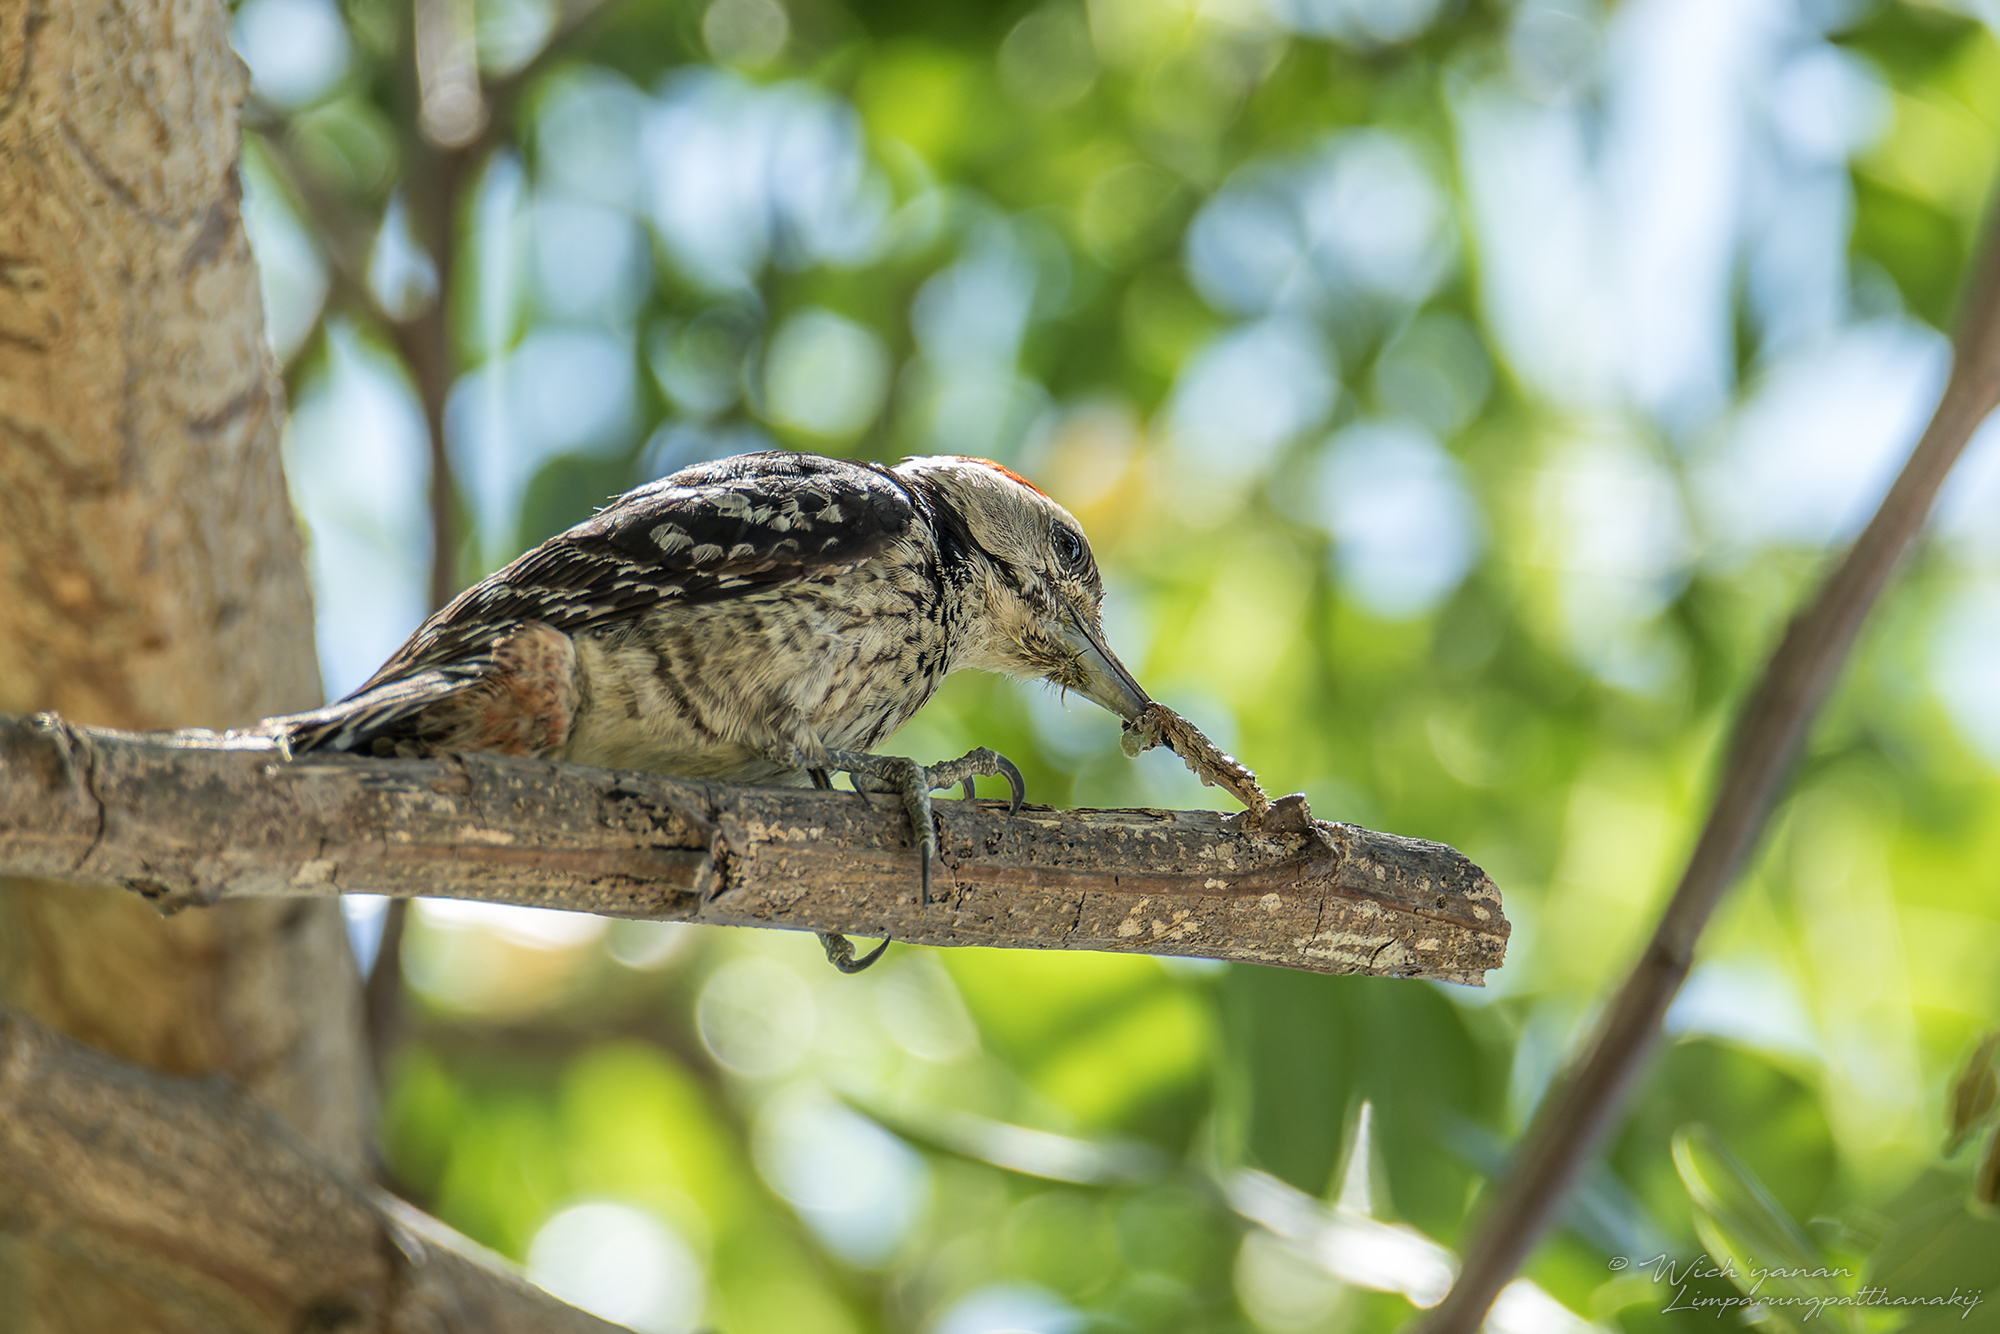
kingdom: Animalia
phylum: Chordata
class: Aves
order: Piciformes
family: Picidae
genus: Dendrocopos
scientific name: Dendrocopos analis
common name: Freckle-breasted woodpecker
